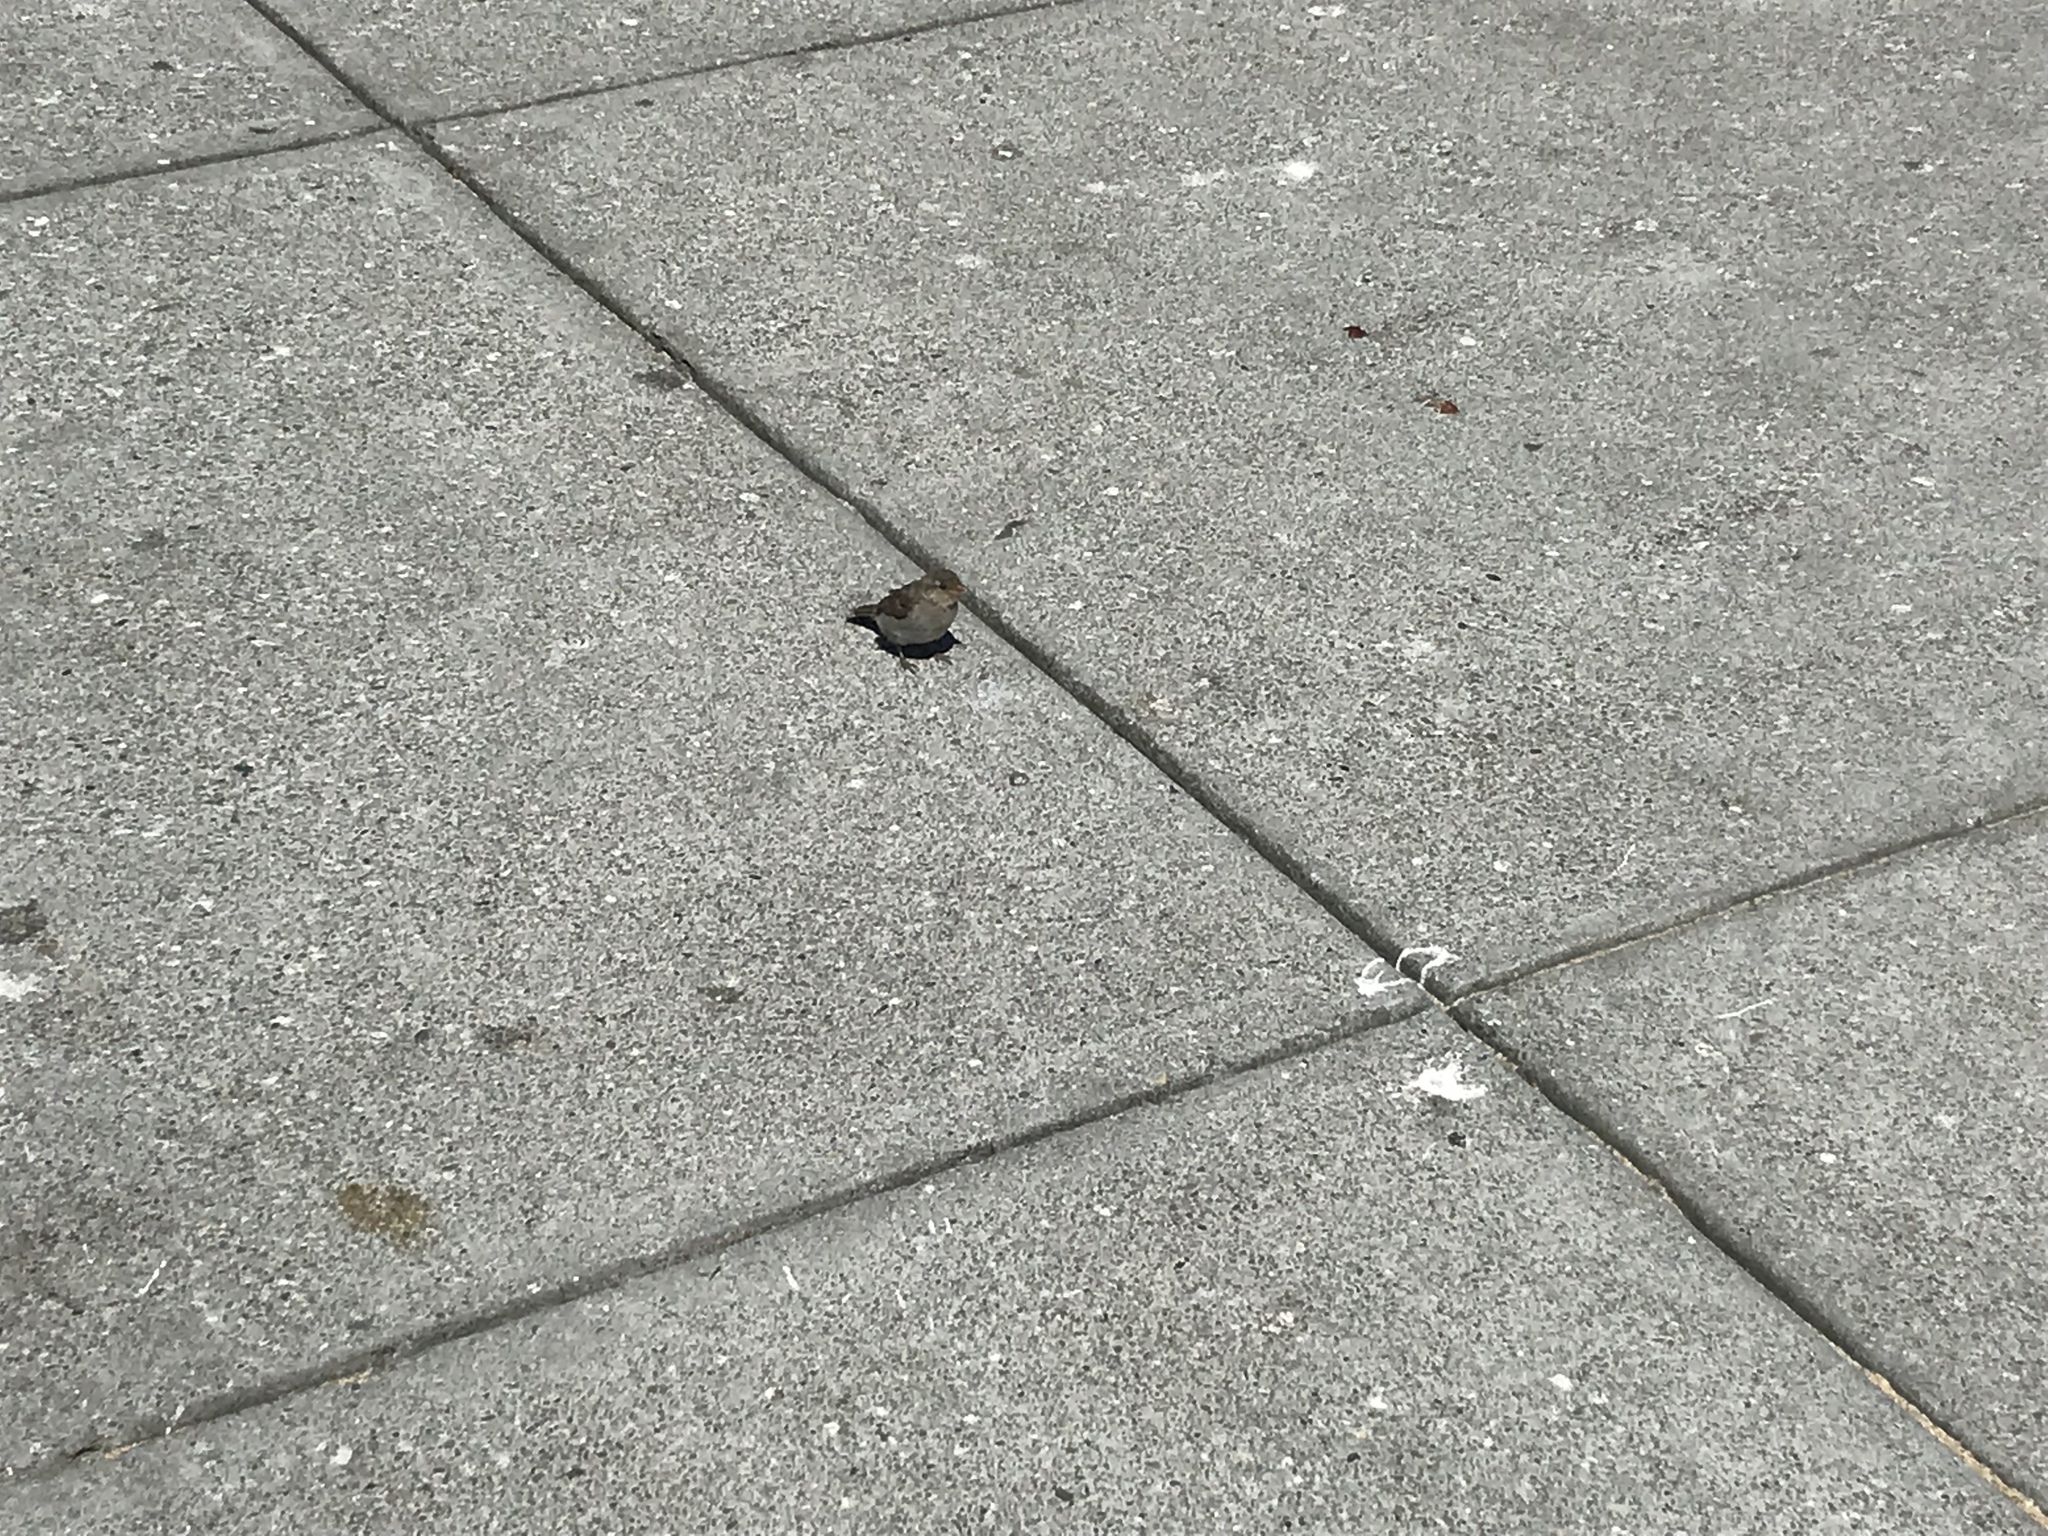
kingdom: Animalia
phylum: Chordata
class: Aves
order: Passeriformes
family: Passeridae
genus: Passer
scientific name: Passer domesticus
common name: House sparrow
